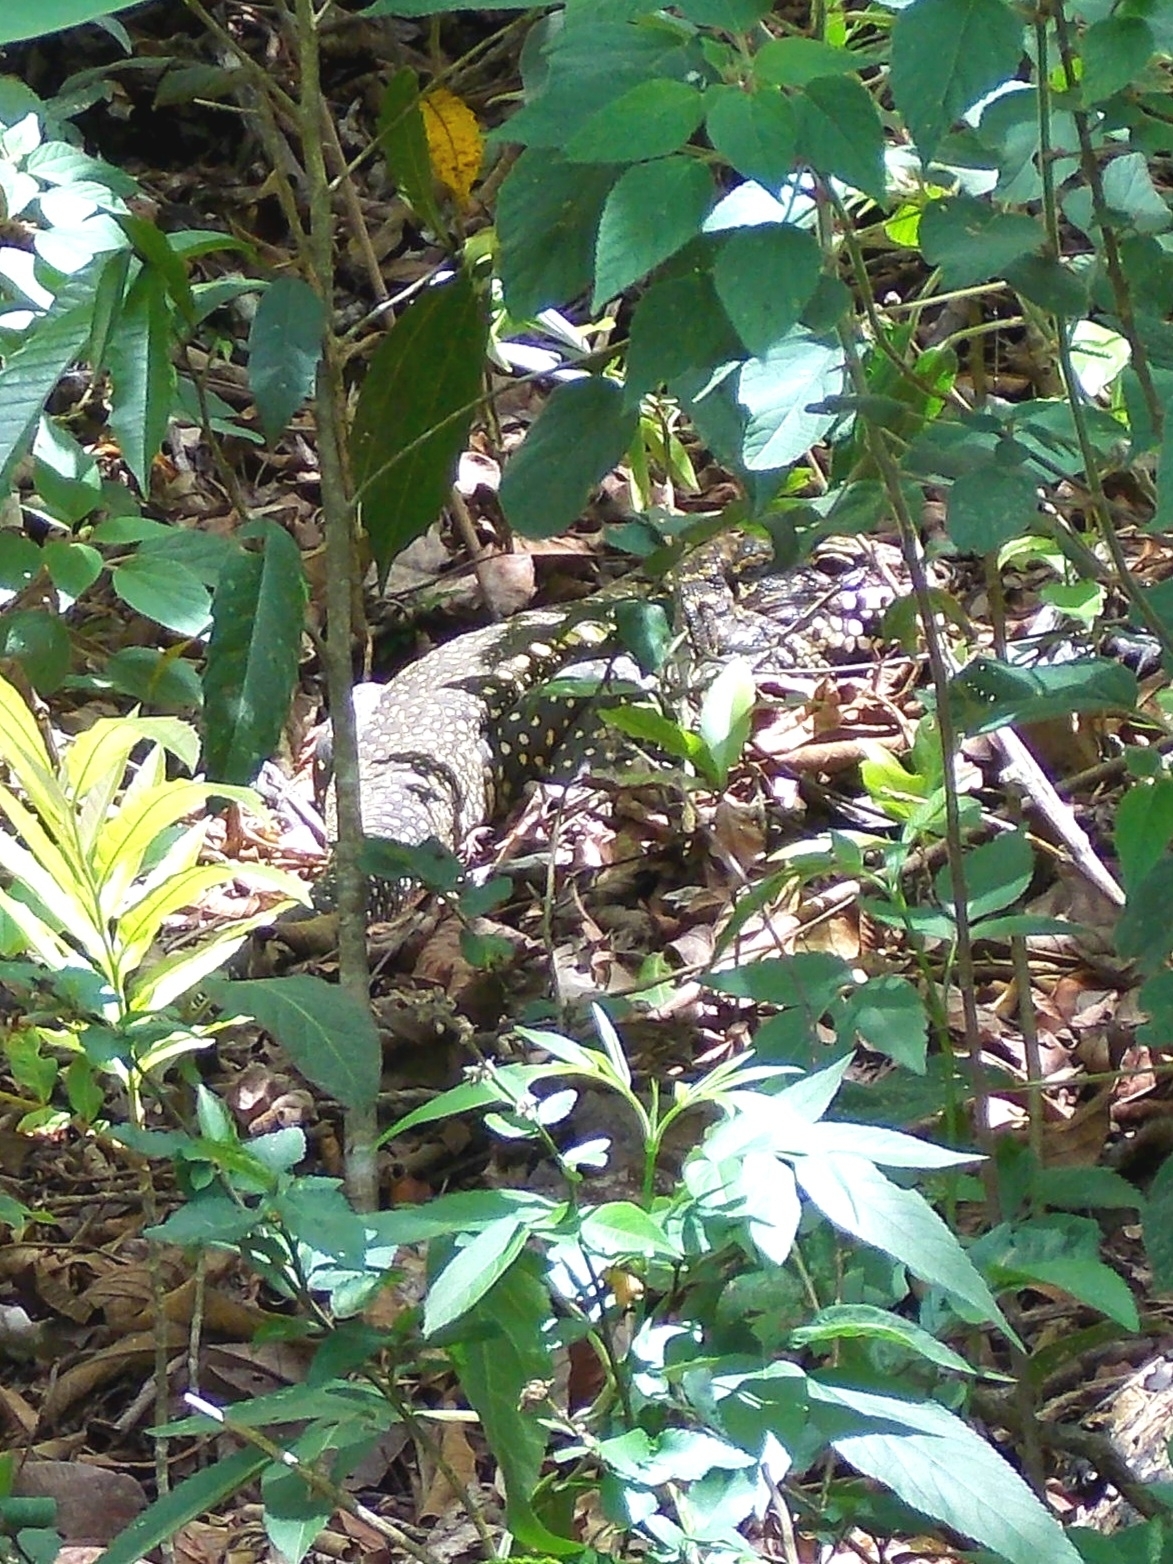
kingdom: Animalia
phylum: Chordata
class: Squamata
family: Teiidae
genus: Salvator
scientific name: Salvator merianae
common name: Argentine black and white tegu
